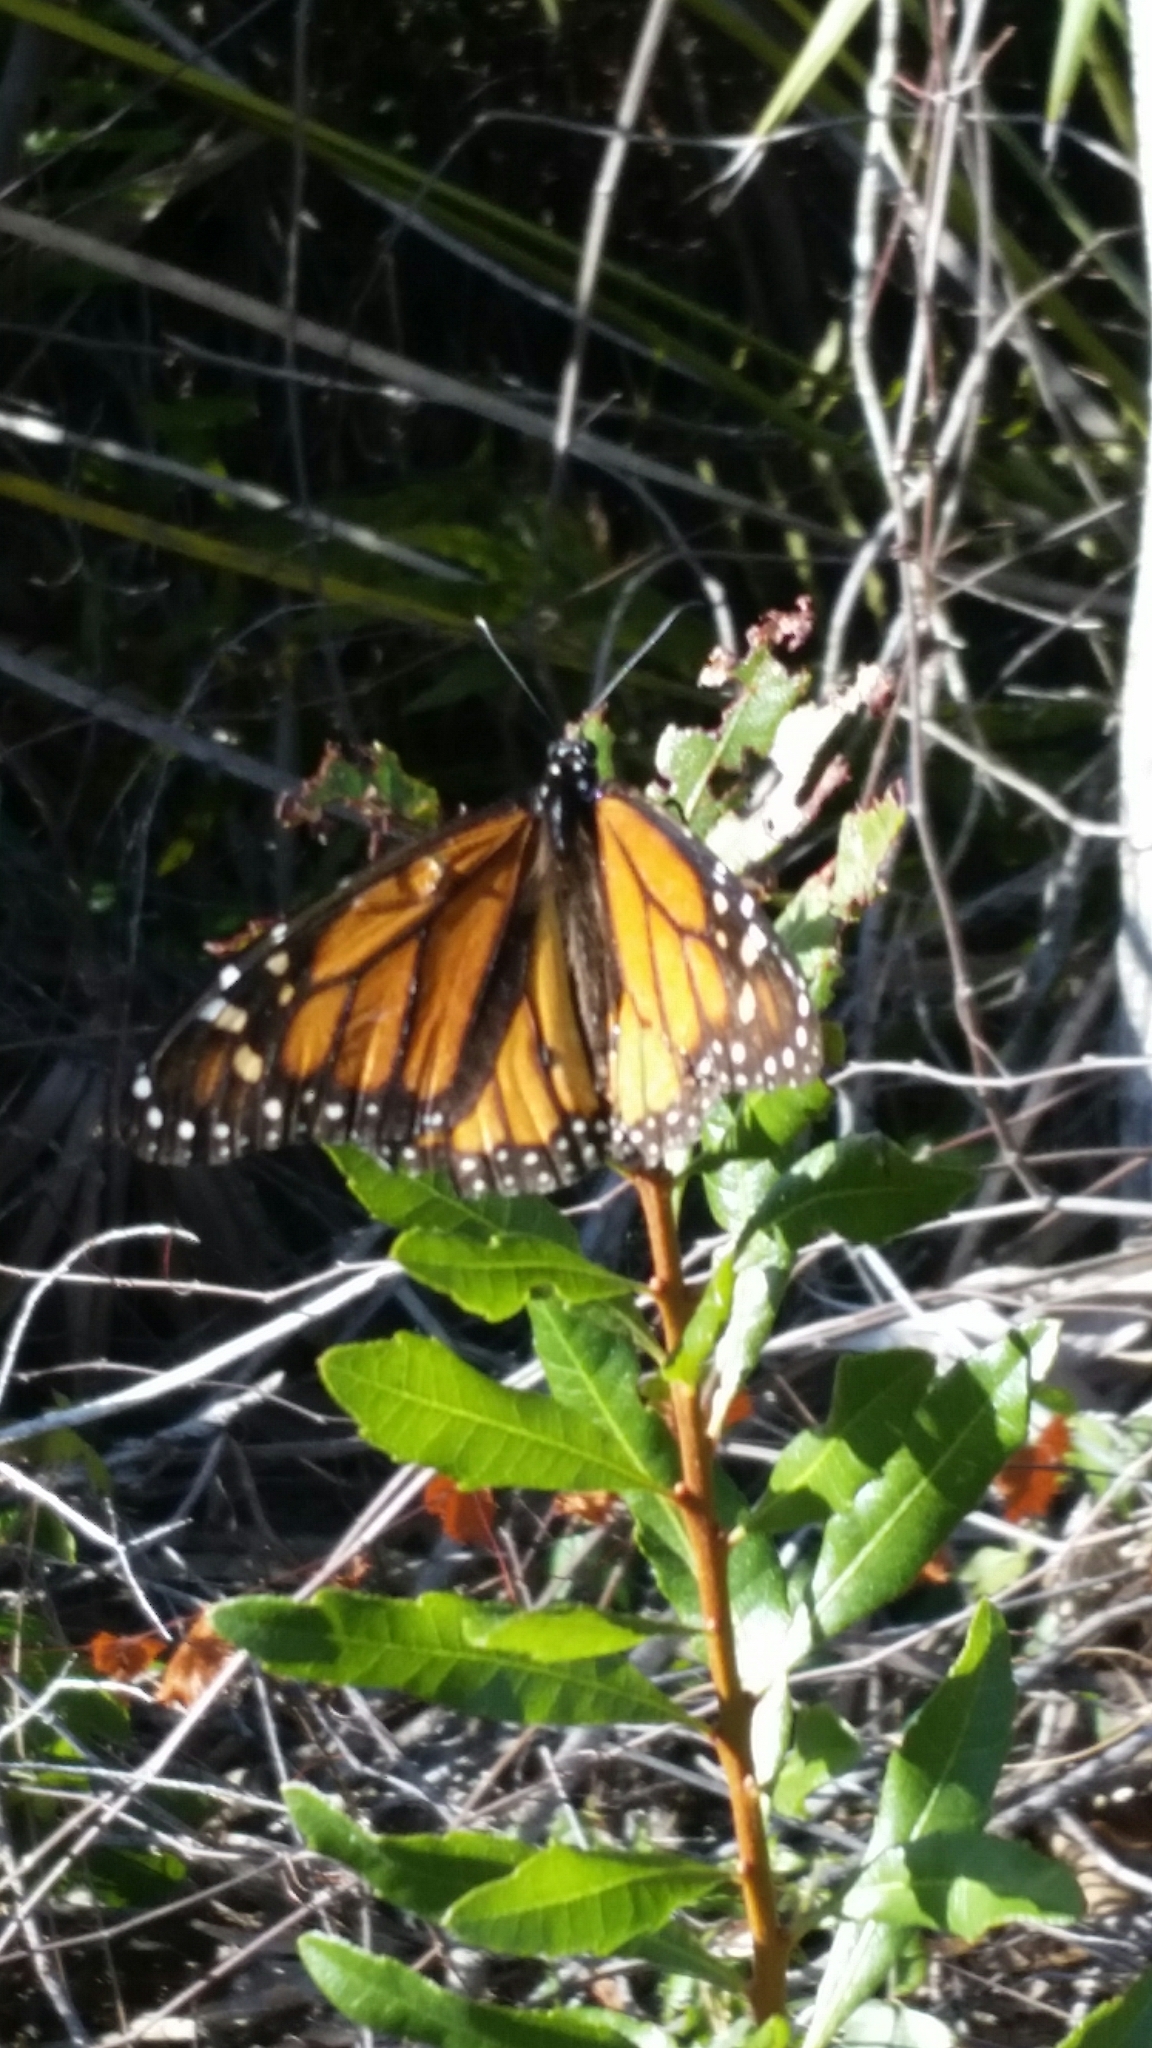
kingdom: Animalia
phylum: Arthropoda
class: Insecta
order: Lepidoptera
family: Nymphalidae
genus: Danaus
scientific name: Danaus plexippus
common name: Monarch
